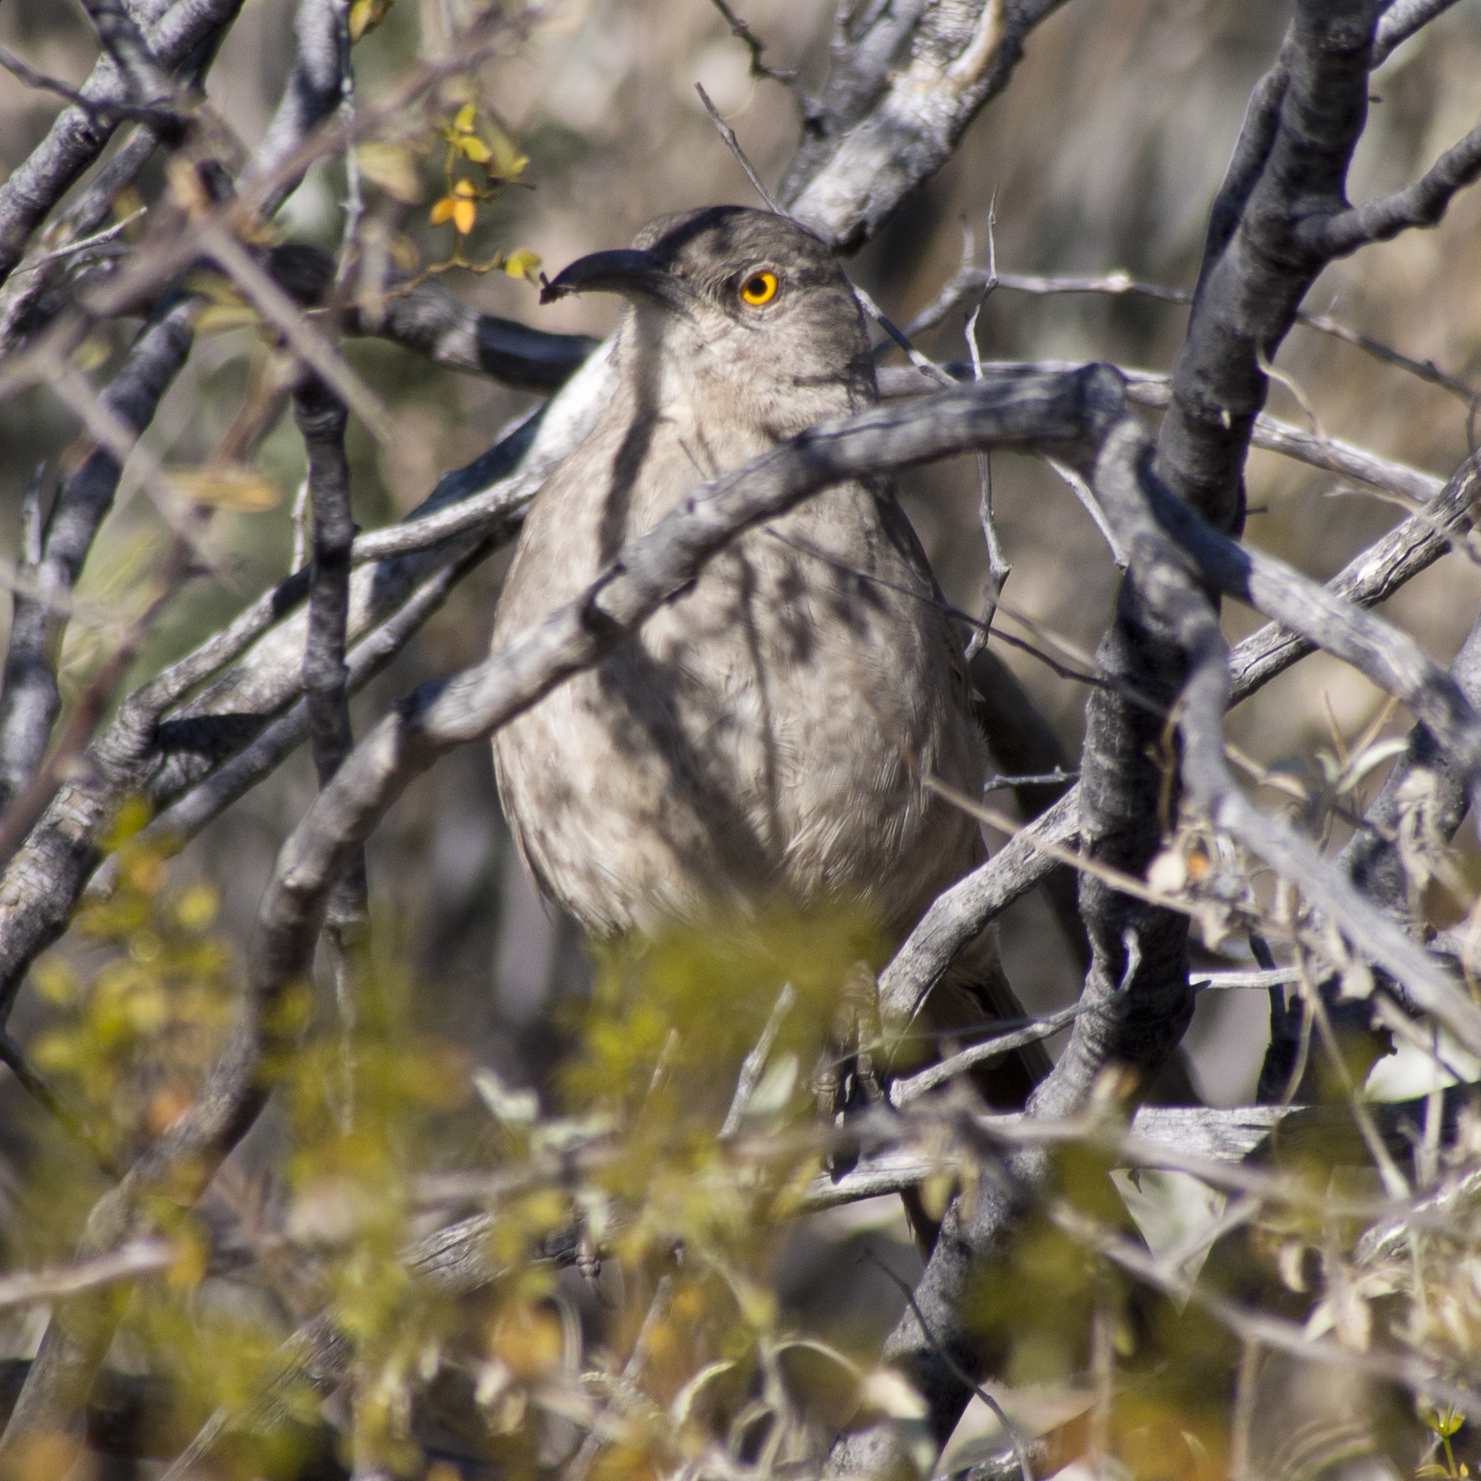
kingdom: Animalia
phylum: Chordata
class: Aves
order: Passeriformes
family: Mimidae
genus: Toxostoma
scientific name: Toxostoma curvirostre
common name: Curve-billed thrasher
